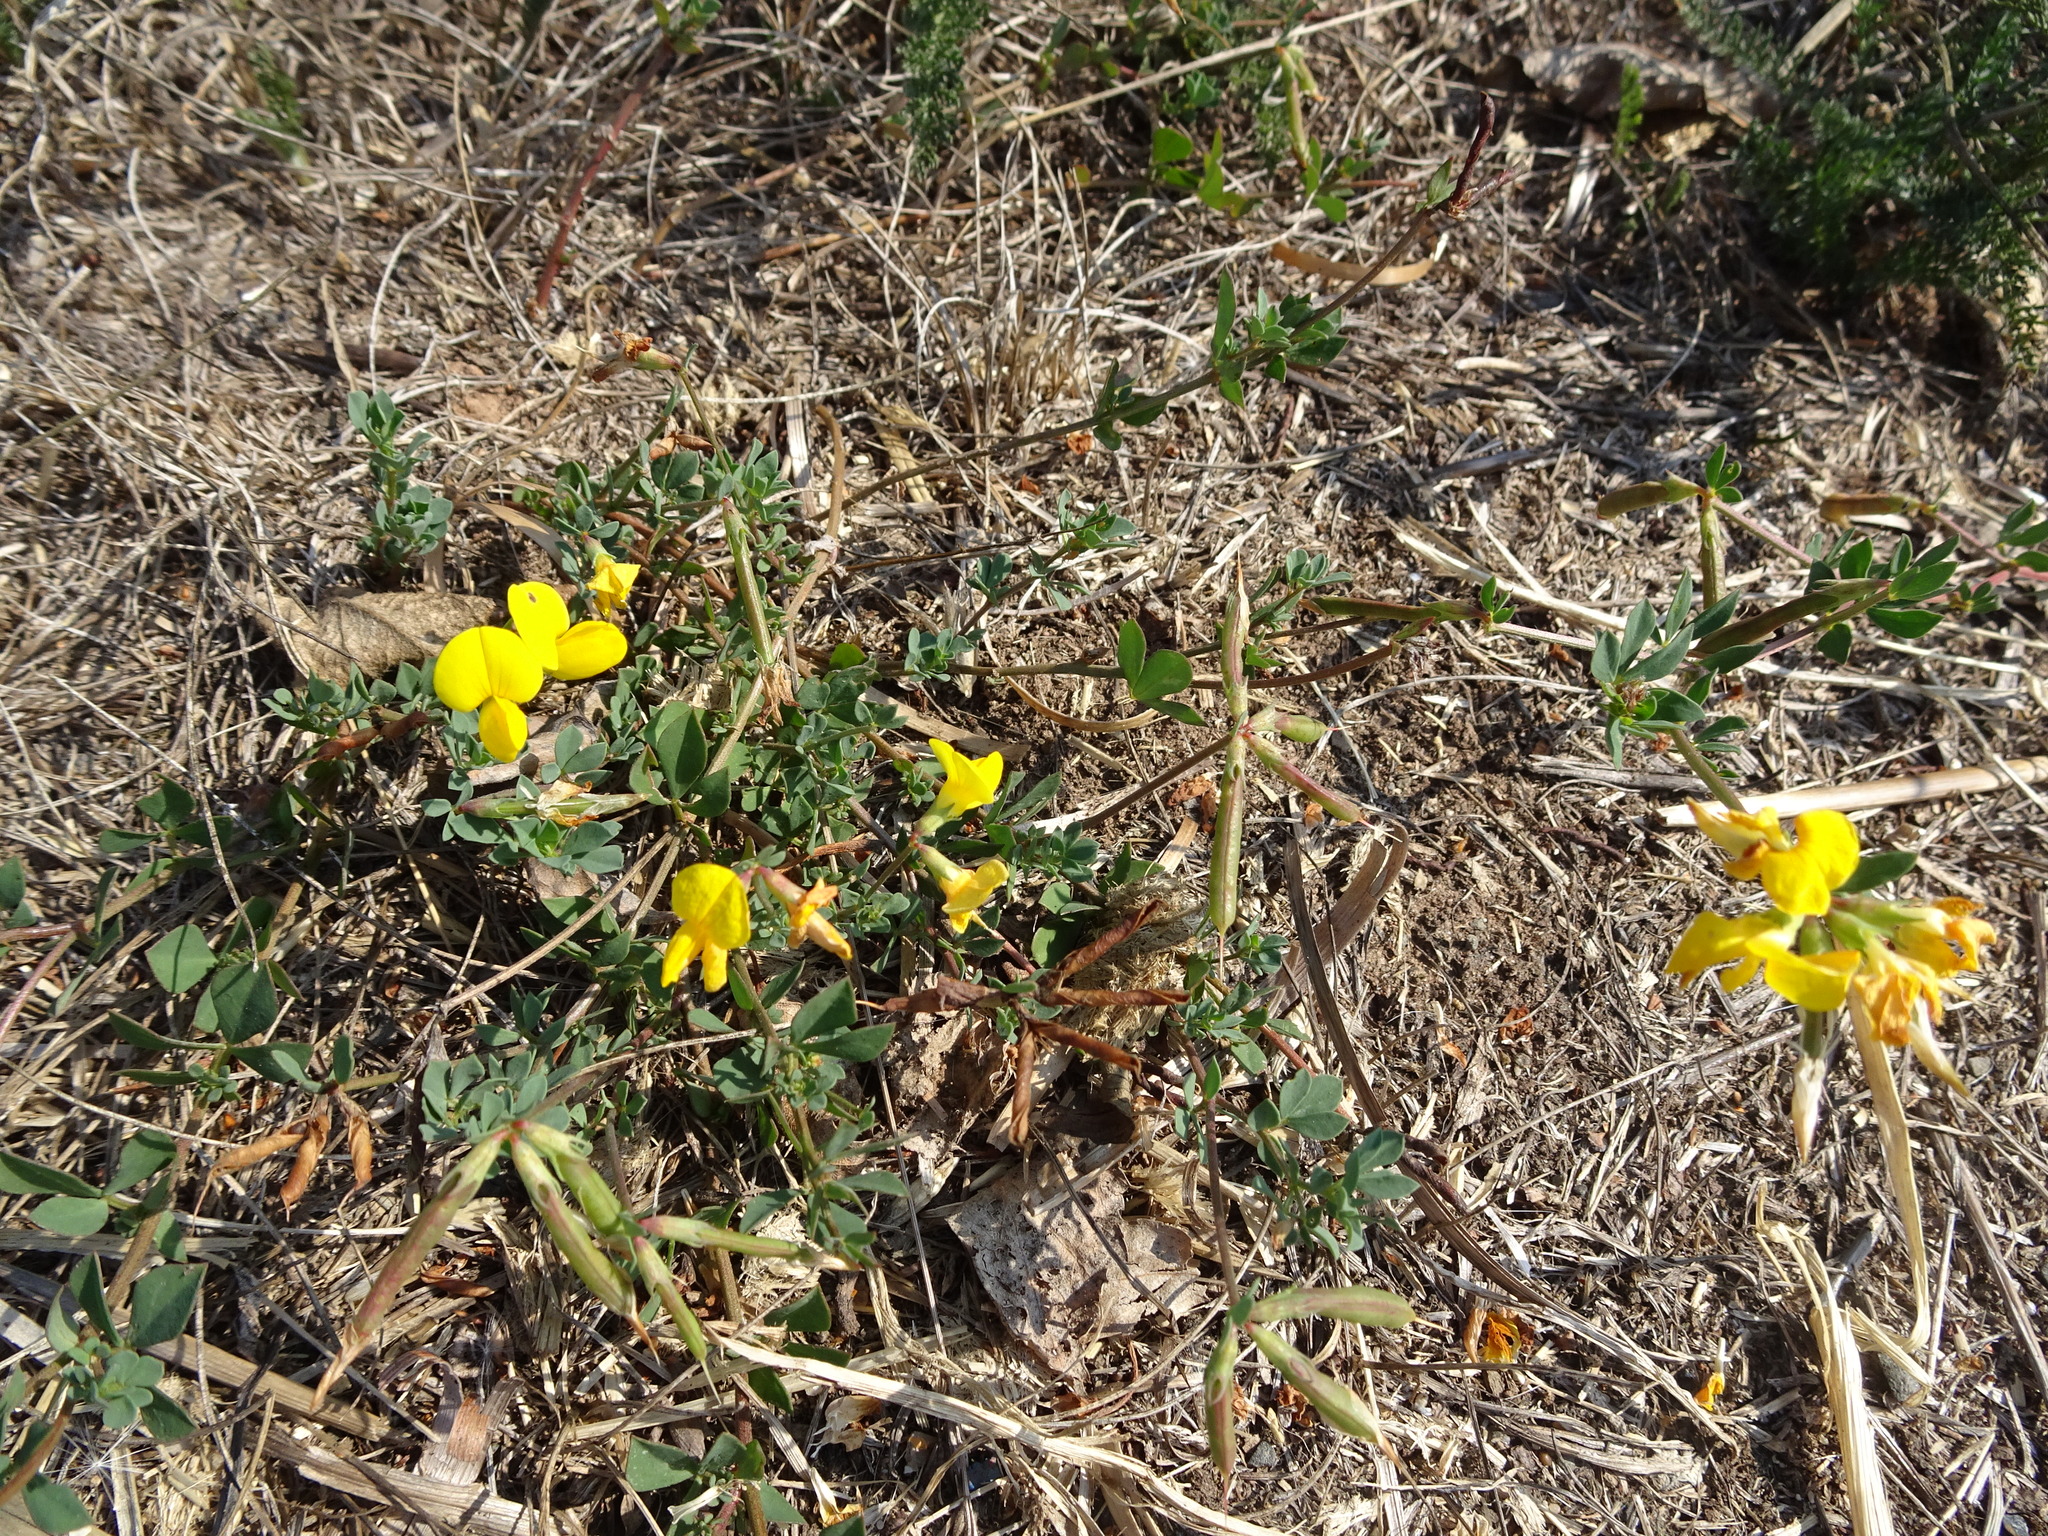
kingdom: Plantae
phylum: Tracheophyta
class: Magnoliopsida
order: Fabales
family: Fabaceae
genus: Lotus
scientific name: Lotus corniculatus
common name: Common bird's-foot-trefoil
